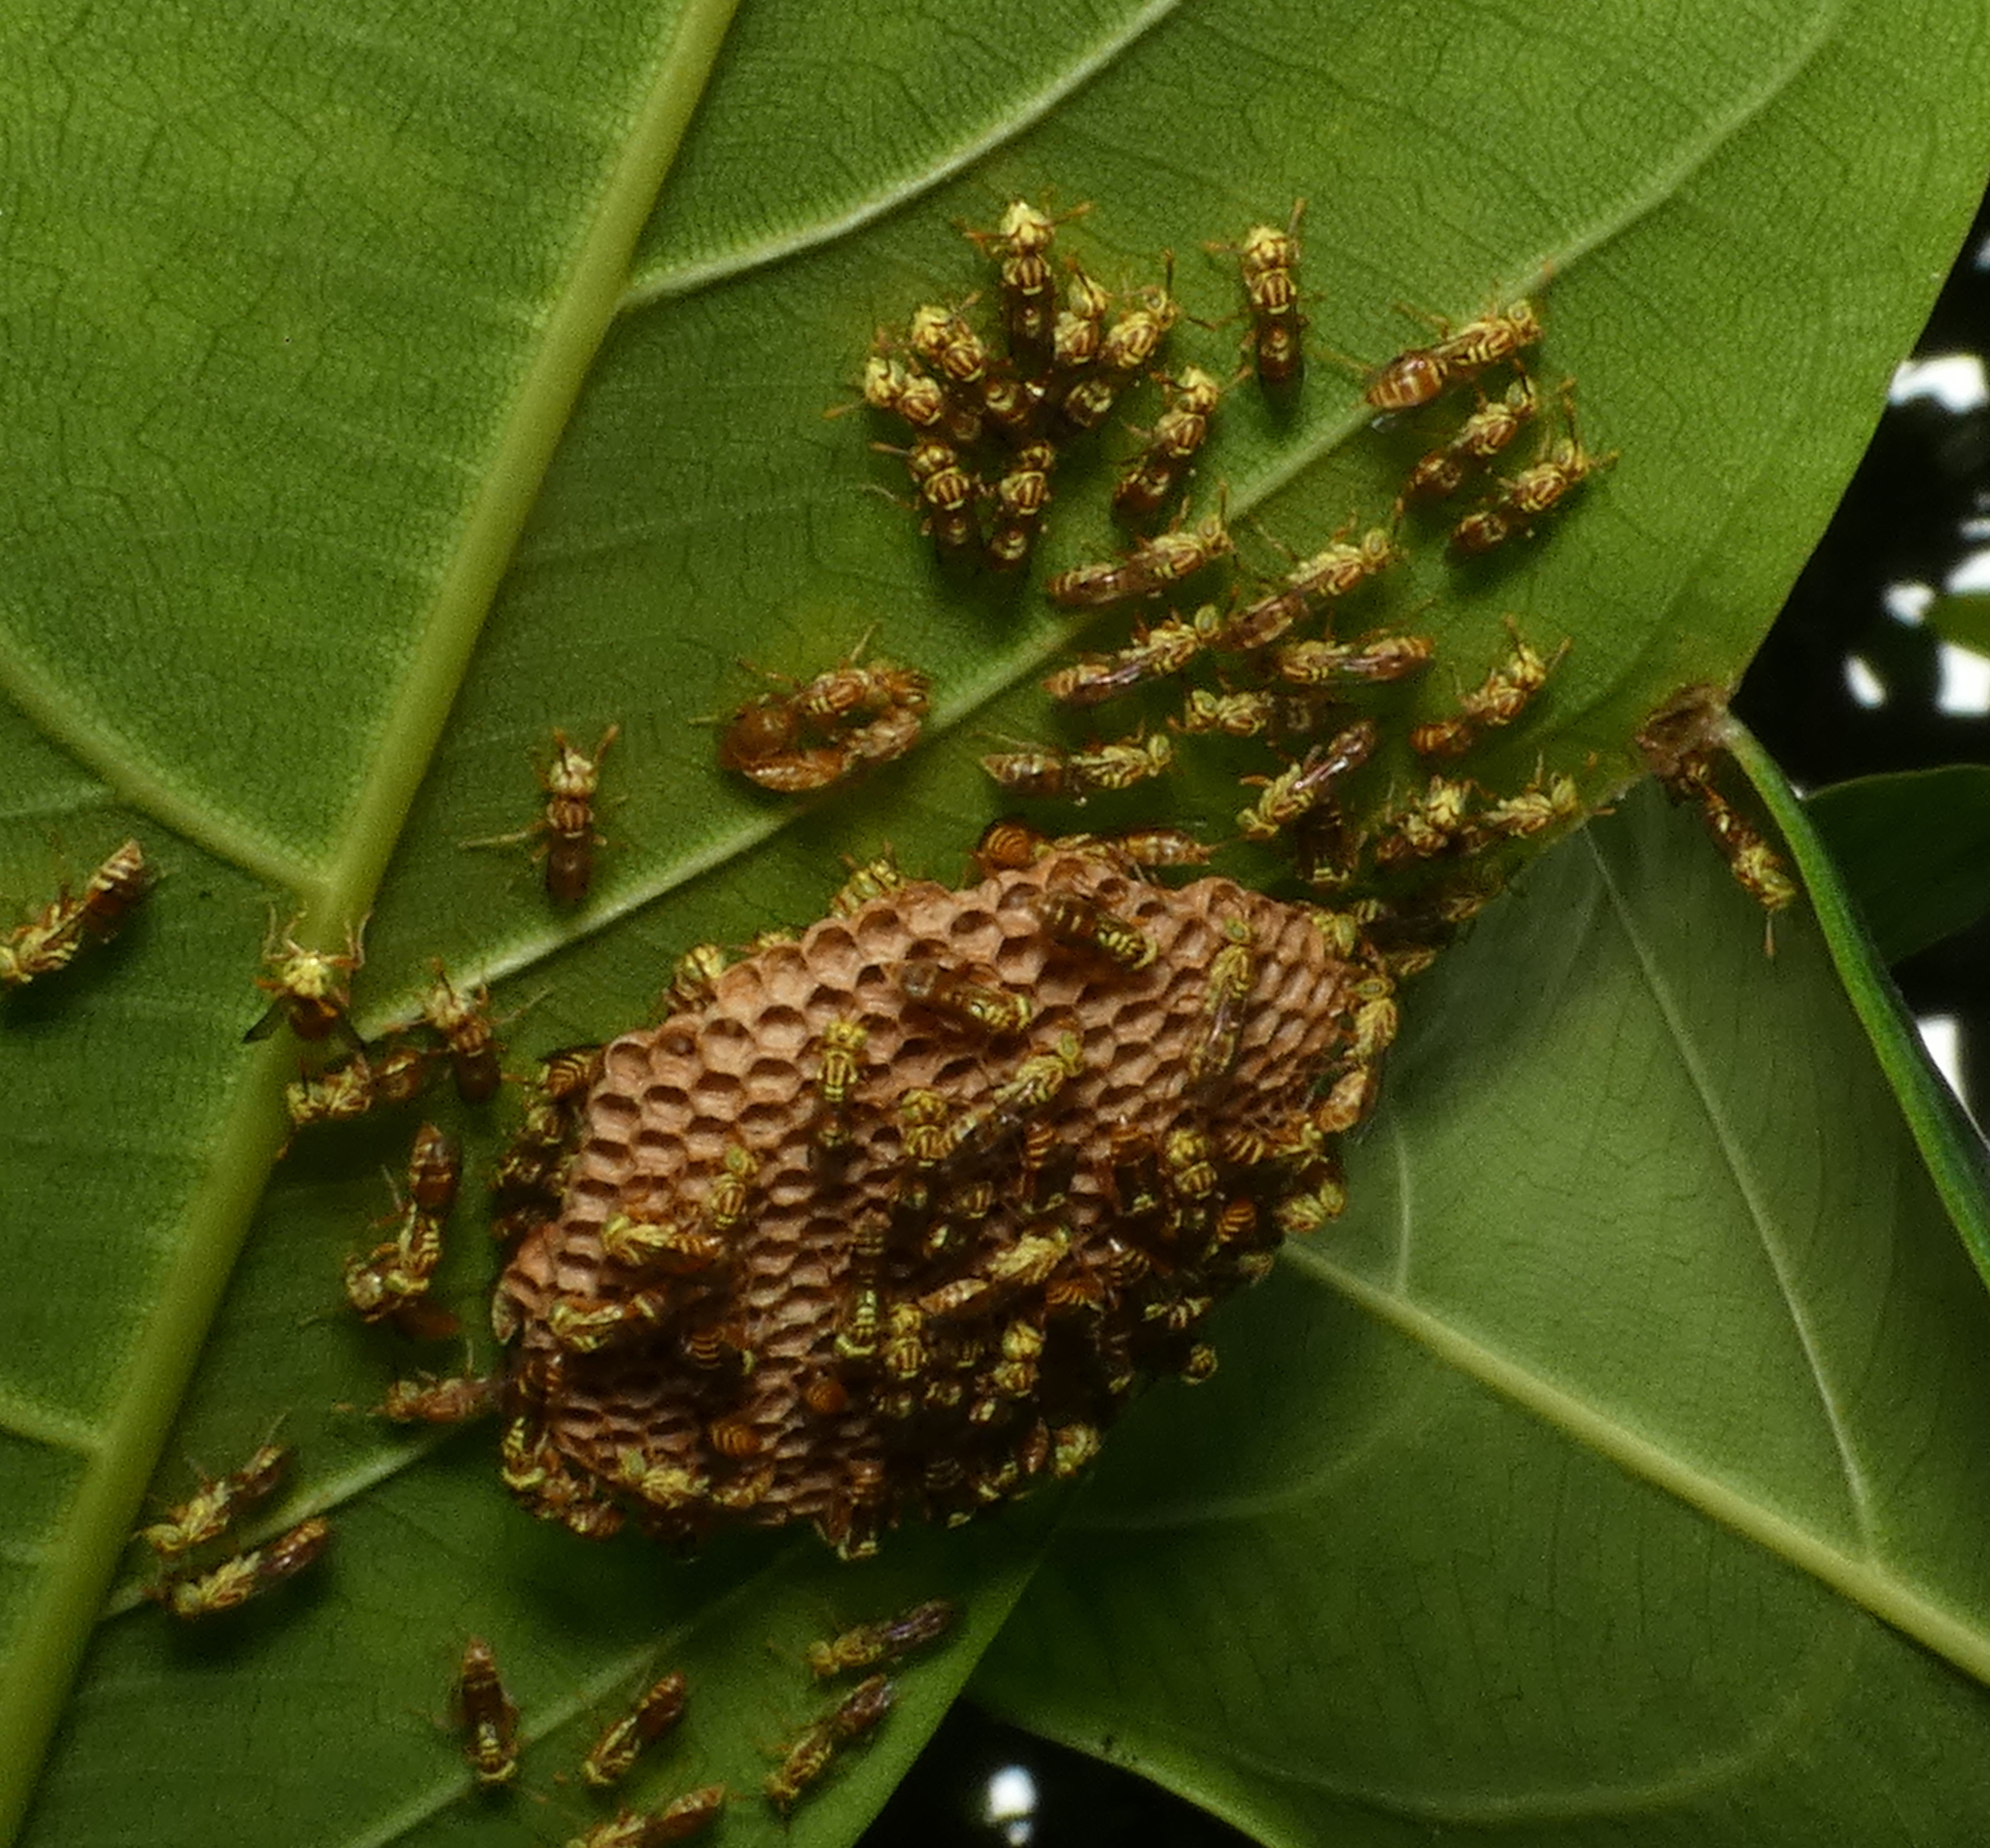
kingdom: Animalia
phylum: Arthropoda
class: Insecta
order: Hymenoptera
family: Vespidae
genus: Protopolybia
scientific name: Protopolybia potiguara
